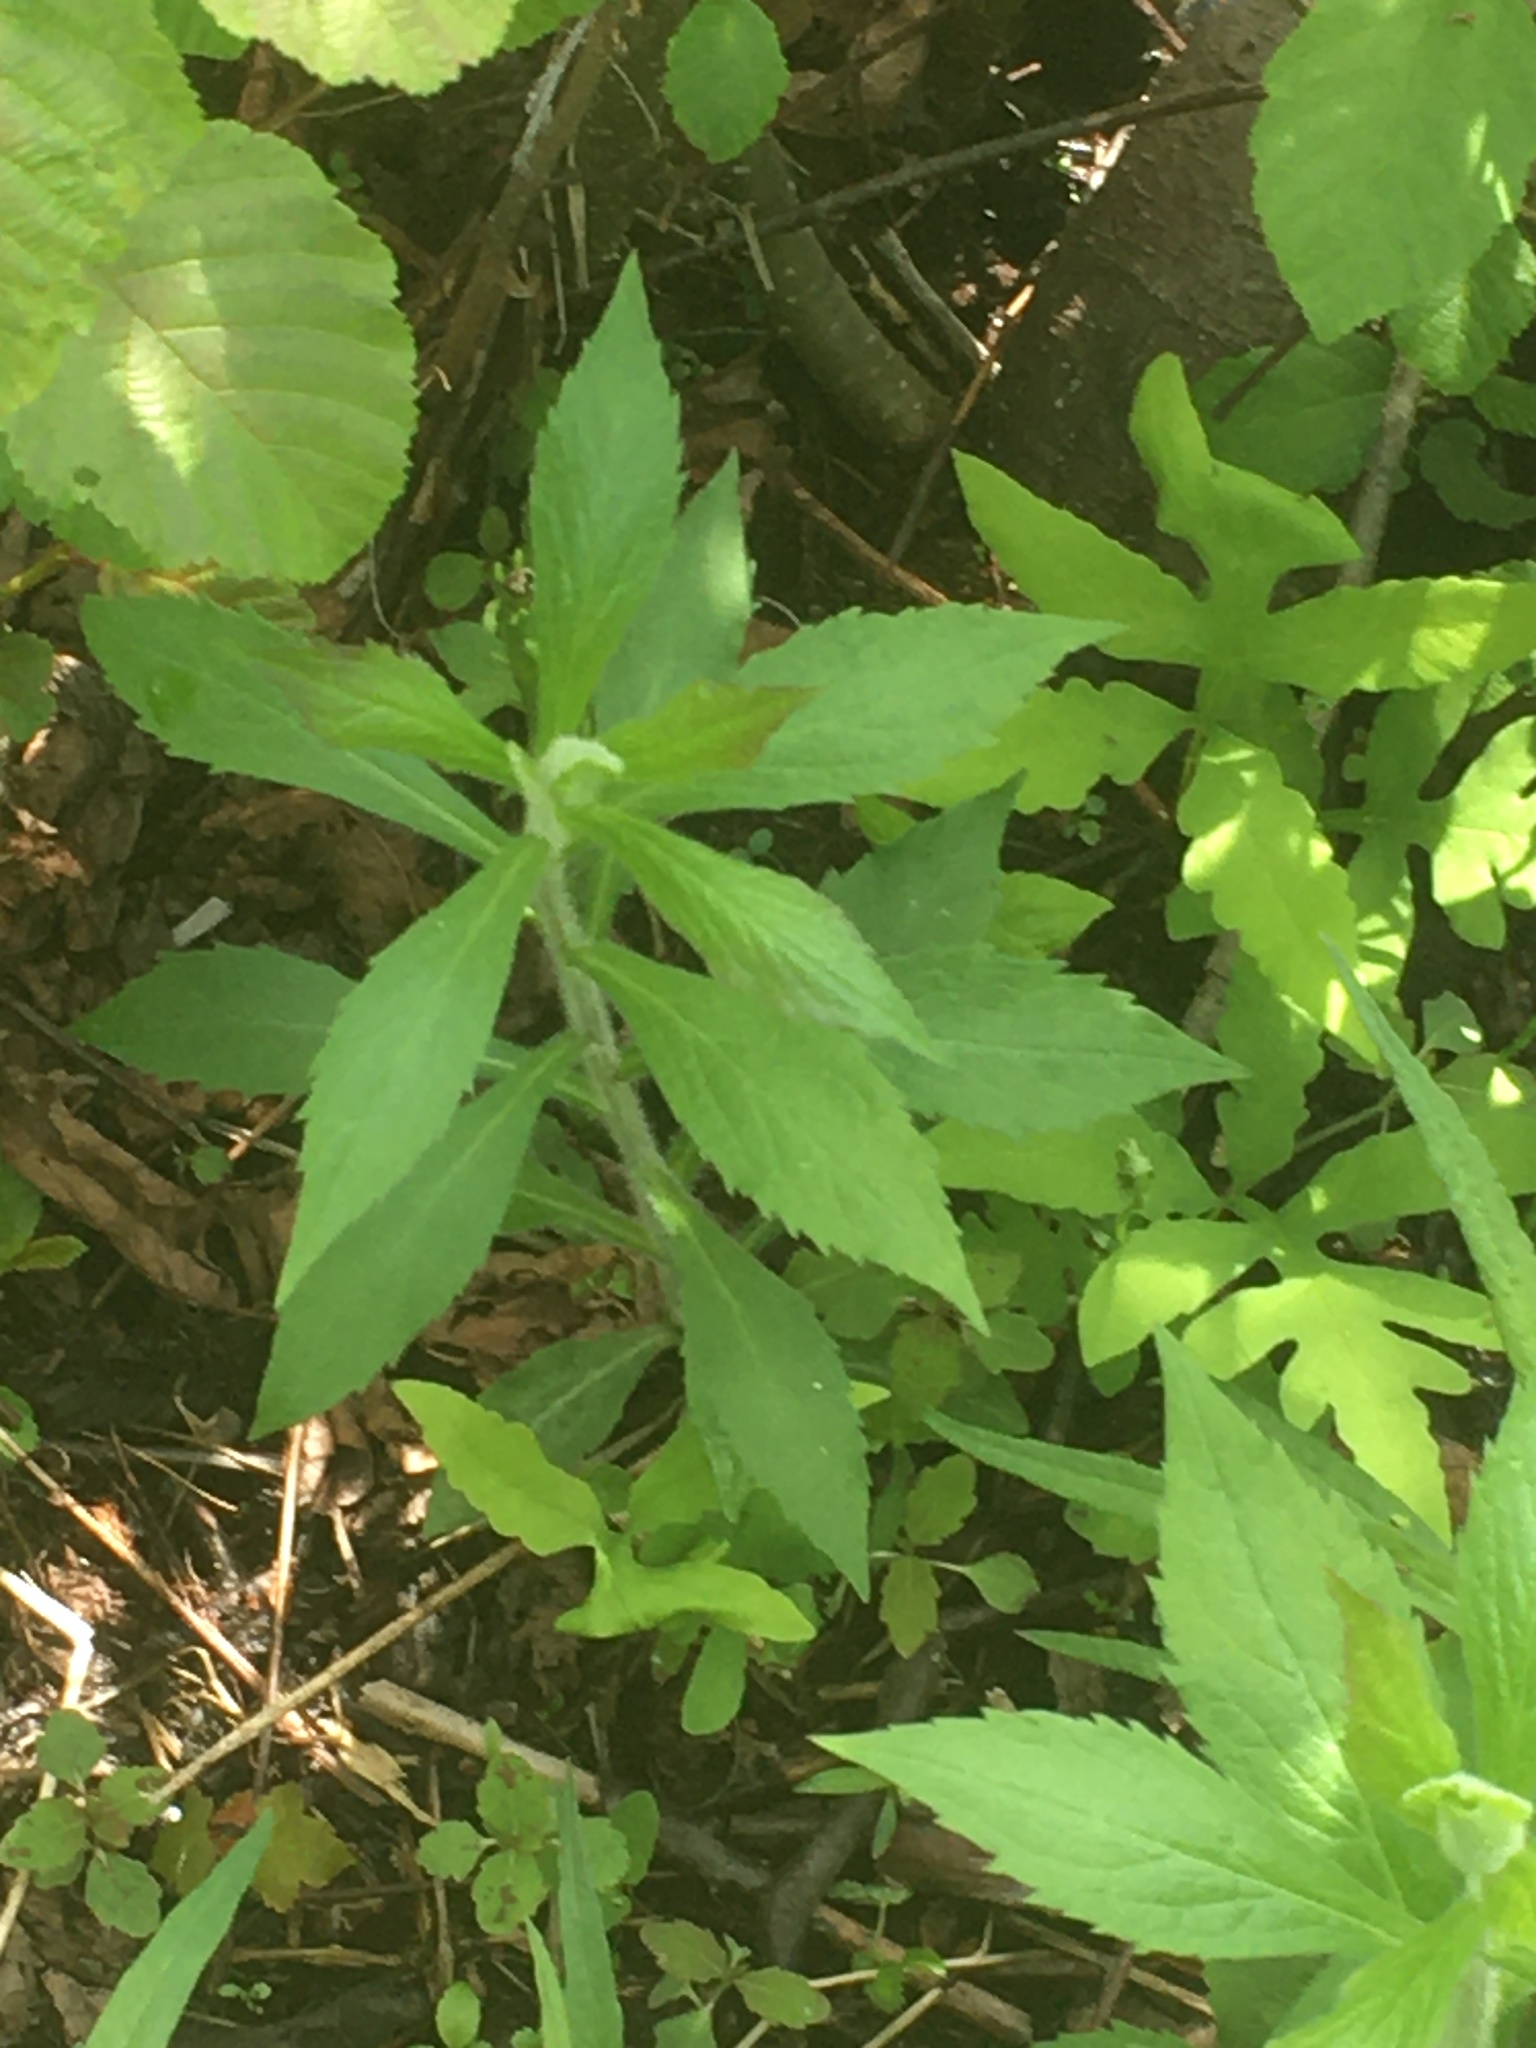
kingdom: Plantae
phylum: Tracheophyta
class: Magnoliopsida
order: Asterales
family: Asteraceae
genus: Solidago
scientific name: Solidago rugosa
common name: Rough-stemmed goldenrod
